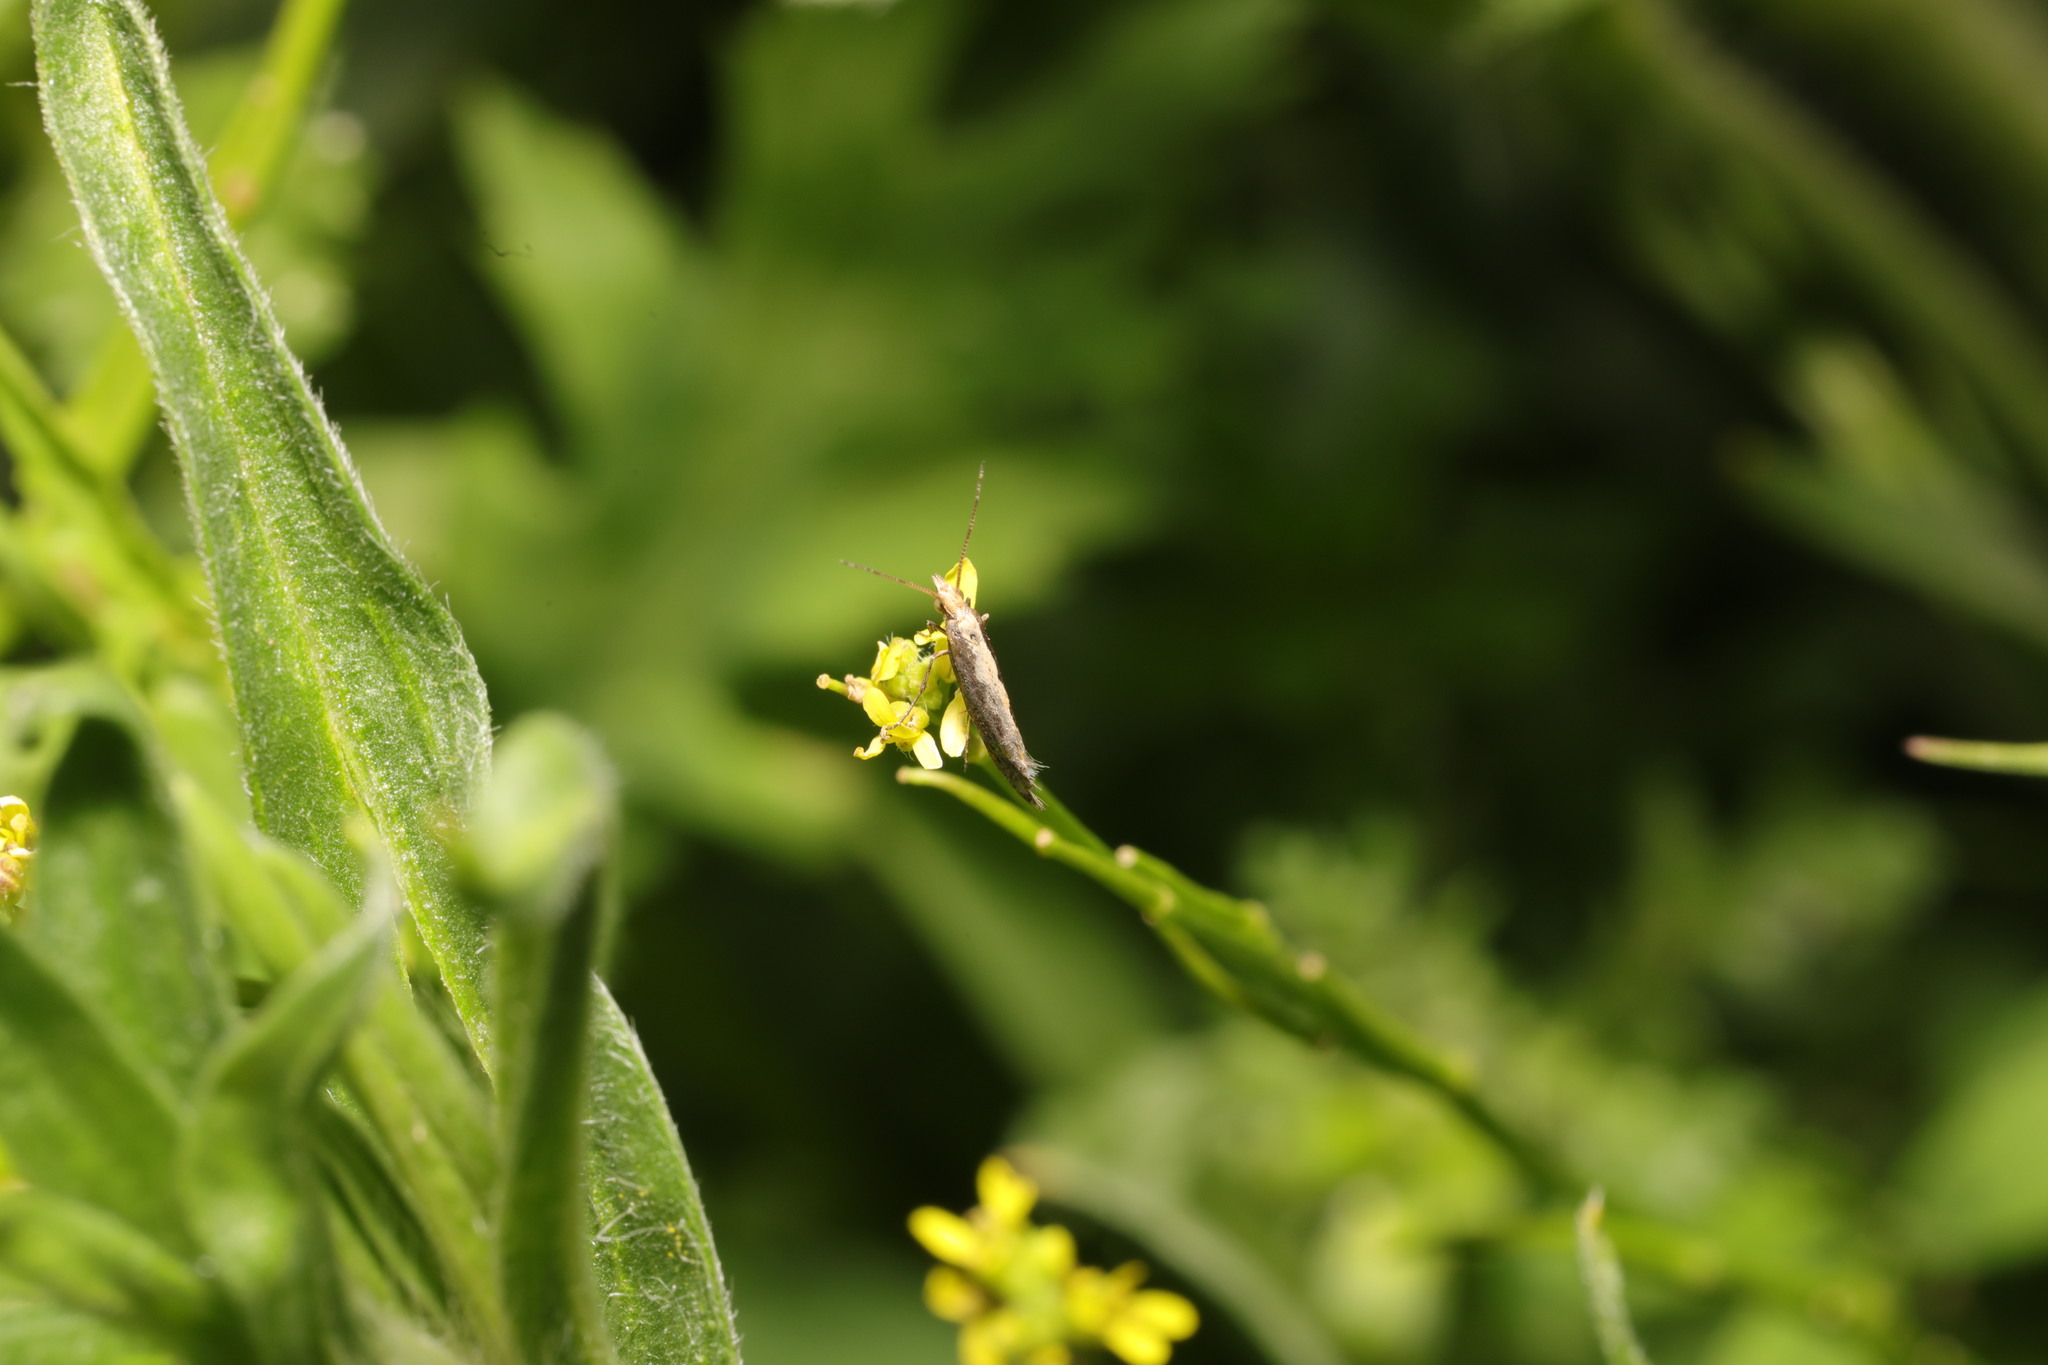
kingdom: Animalia
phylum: Arthropoda
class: Insecta
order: Lepidoptera
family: Plutellidae
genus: Plutella
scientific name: Plutella xylostella
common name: Diamond-back moth
